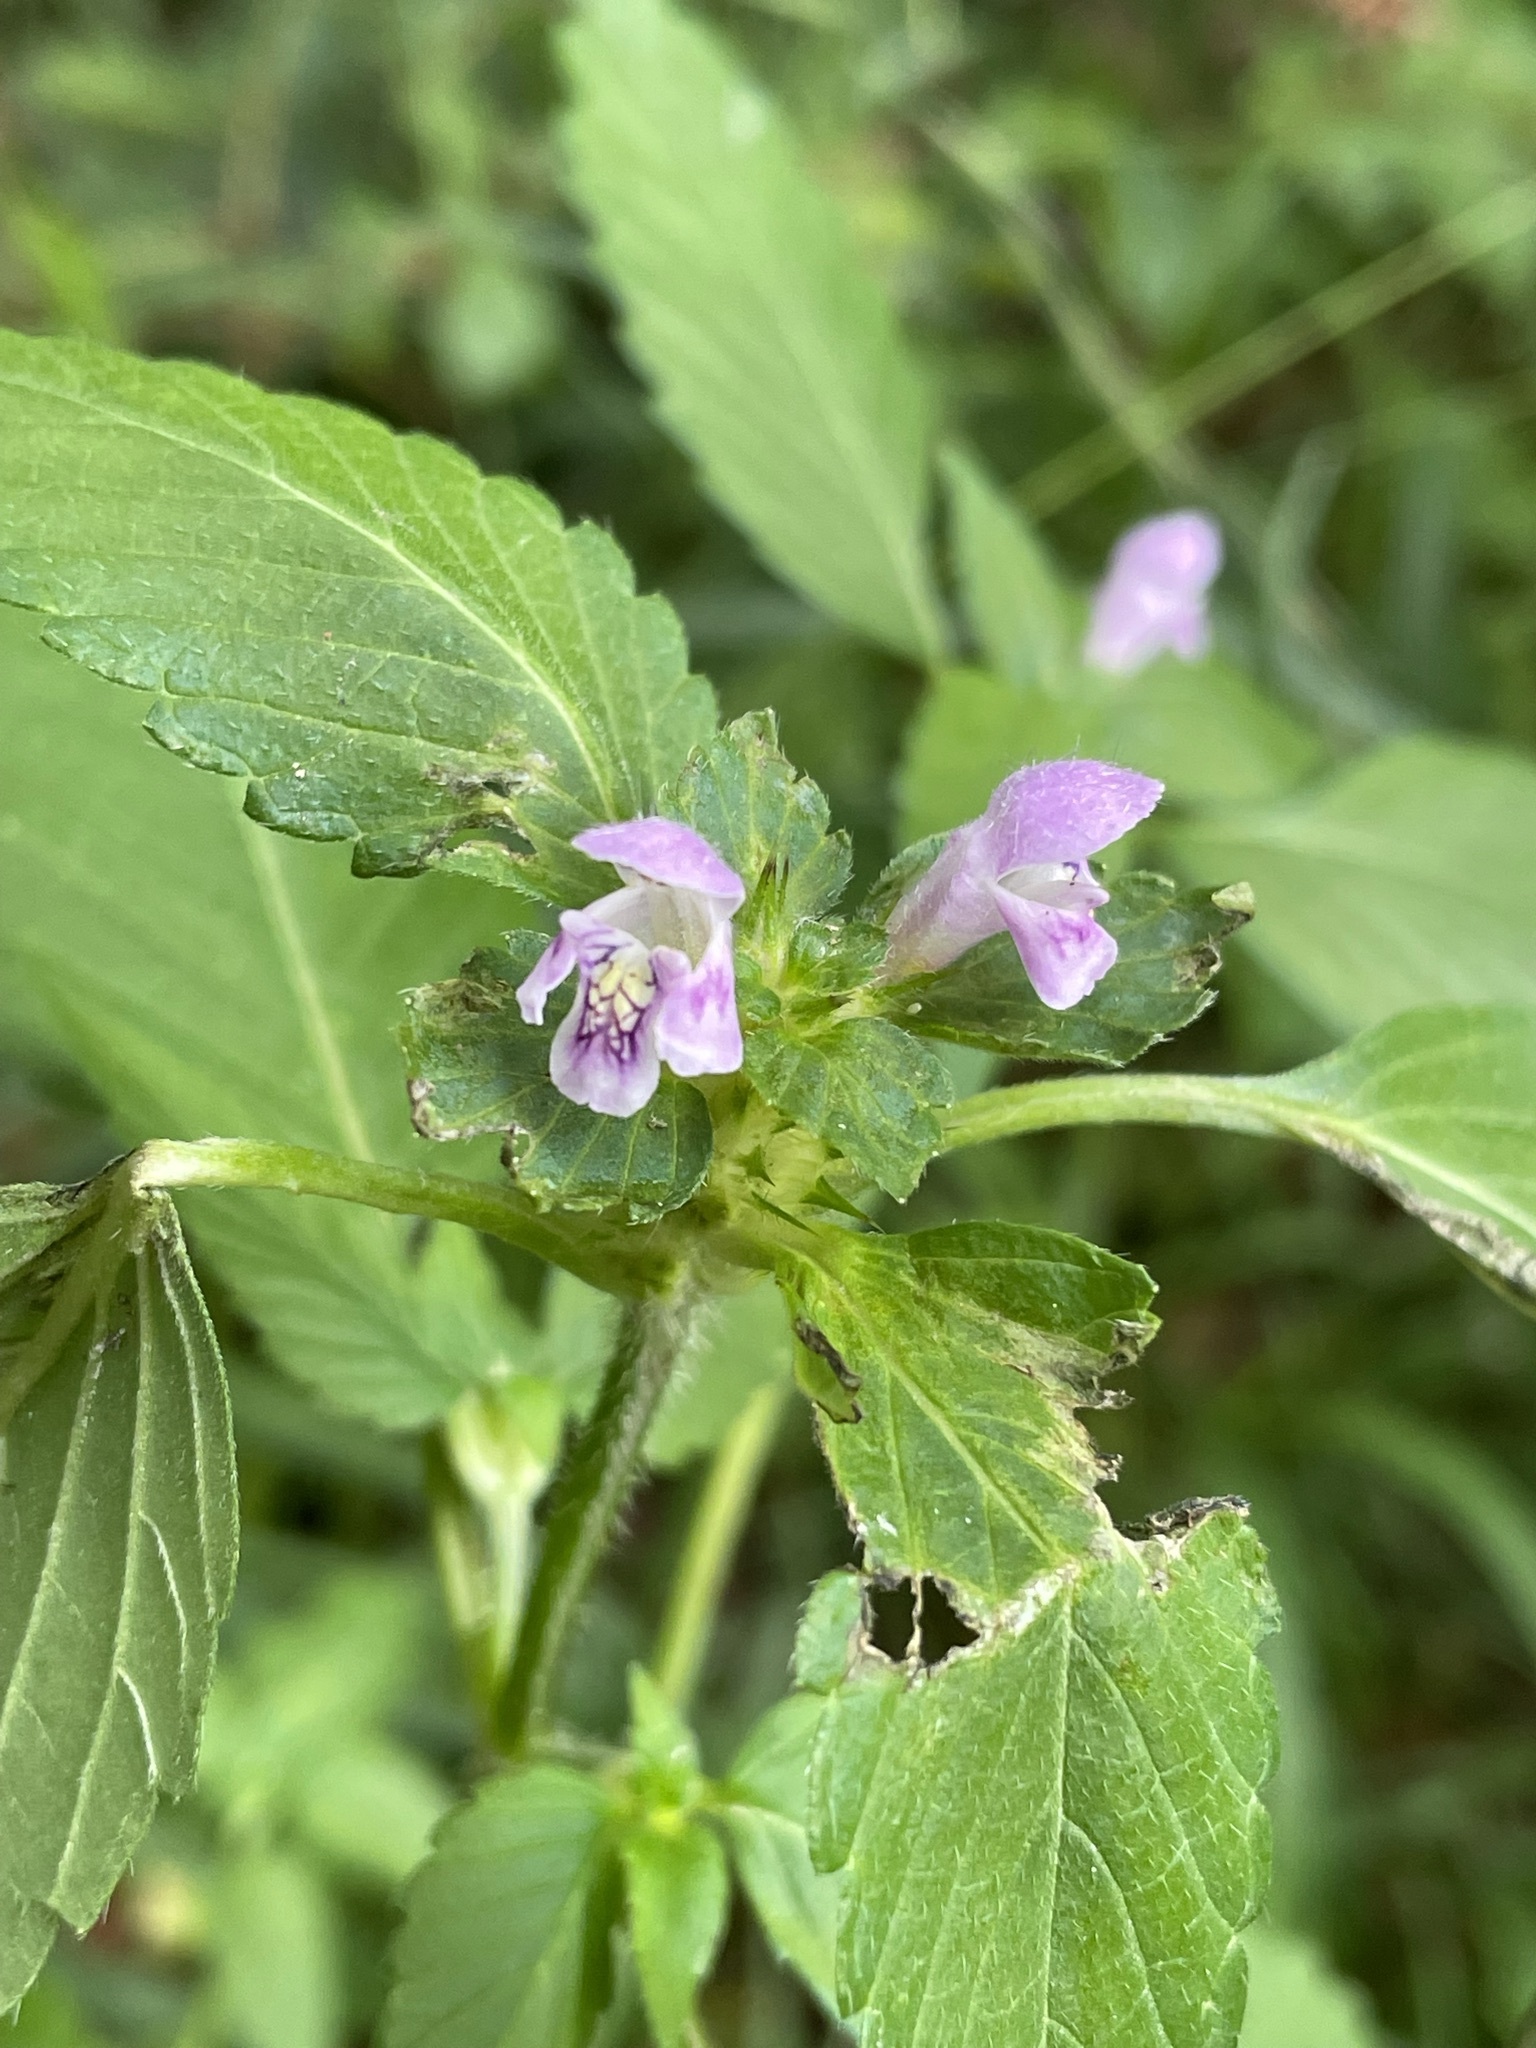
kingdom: Plantae
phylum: Tracheophyta
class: Magnoliopsida
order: Lamiales
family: Lamiaceae
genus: Galeopsis
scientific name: Galeopsis tetrahit
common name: Common hemp-nettle
